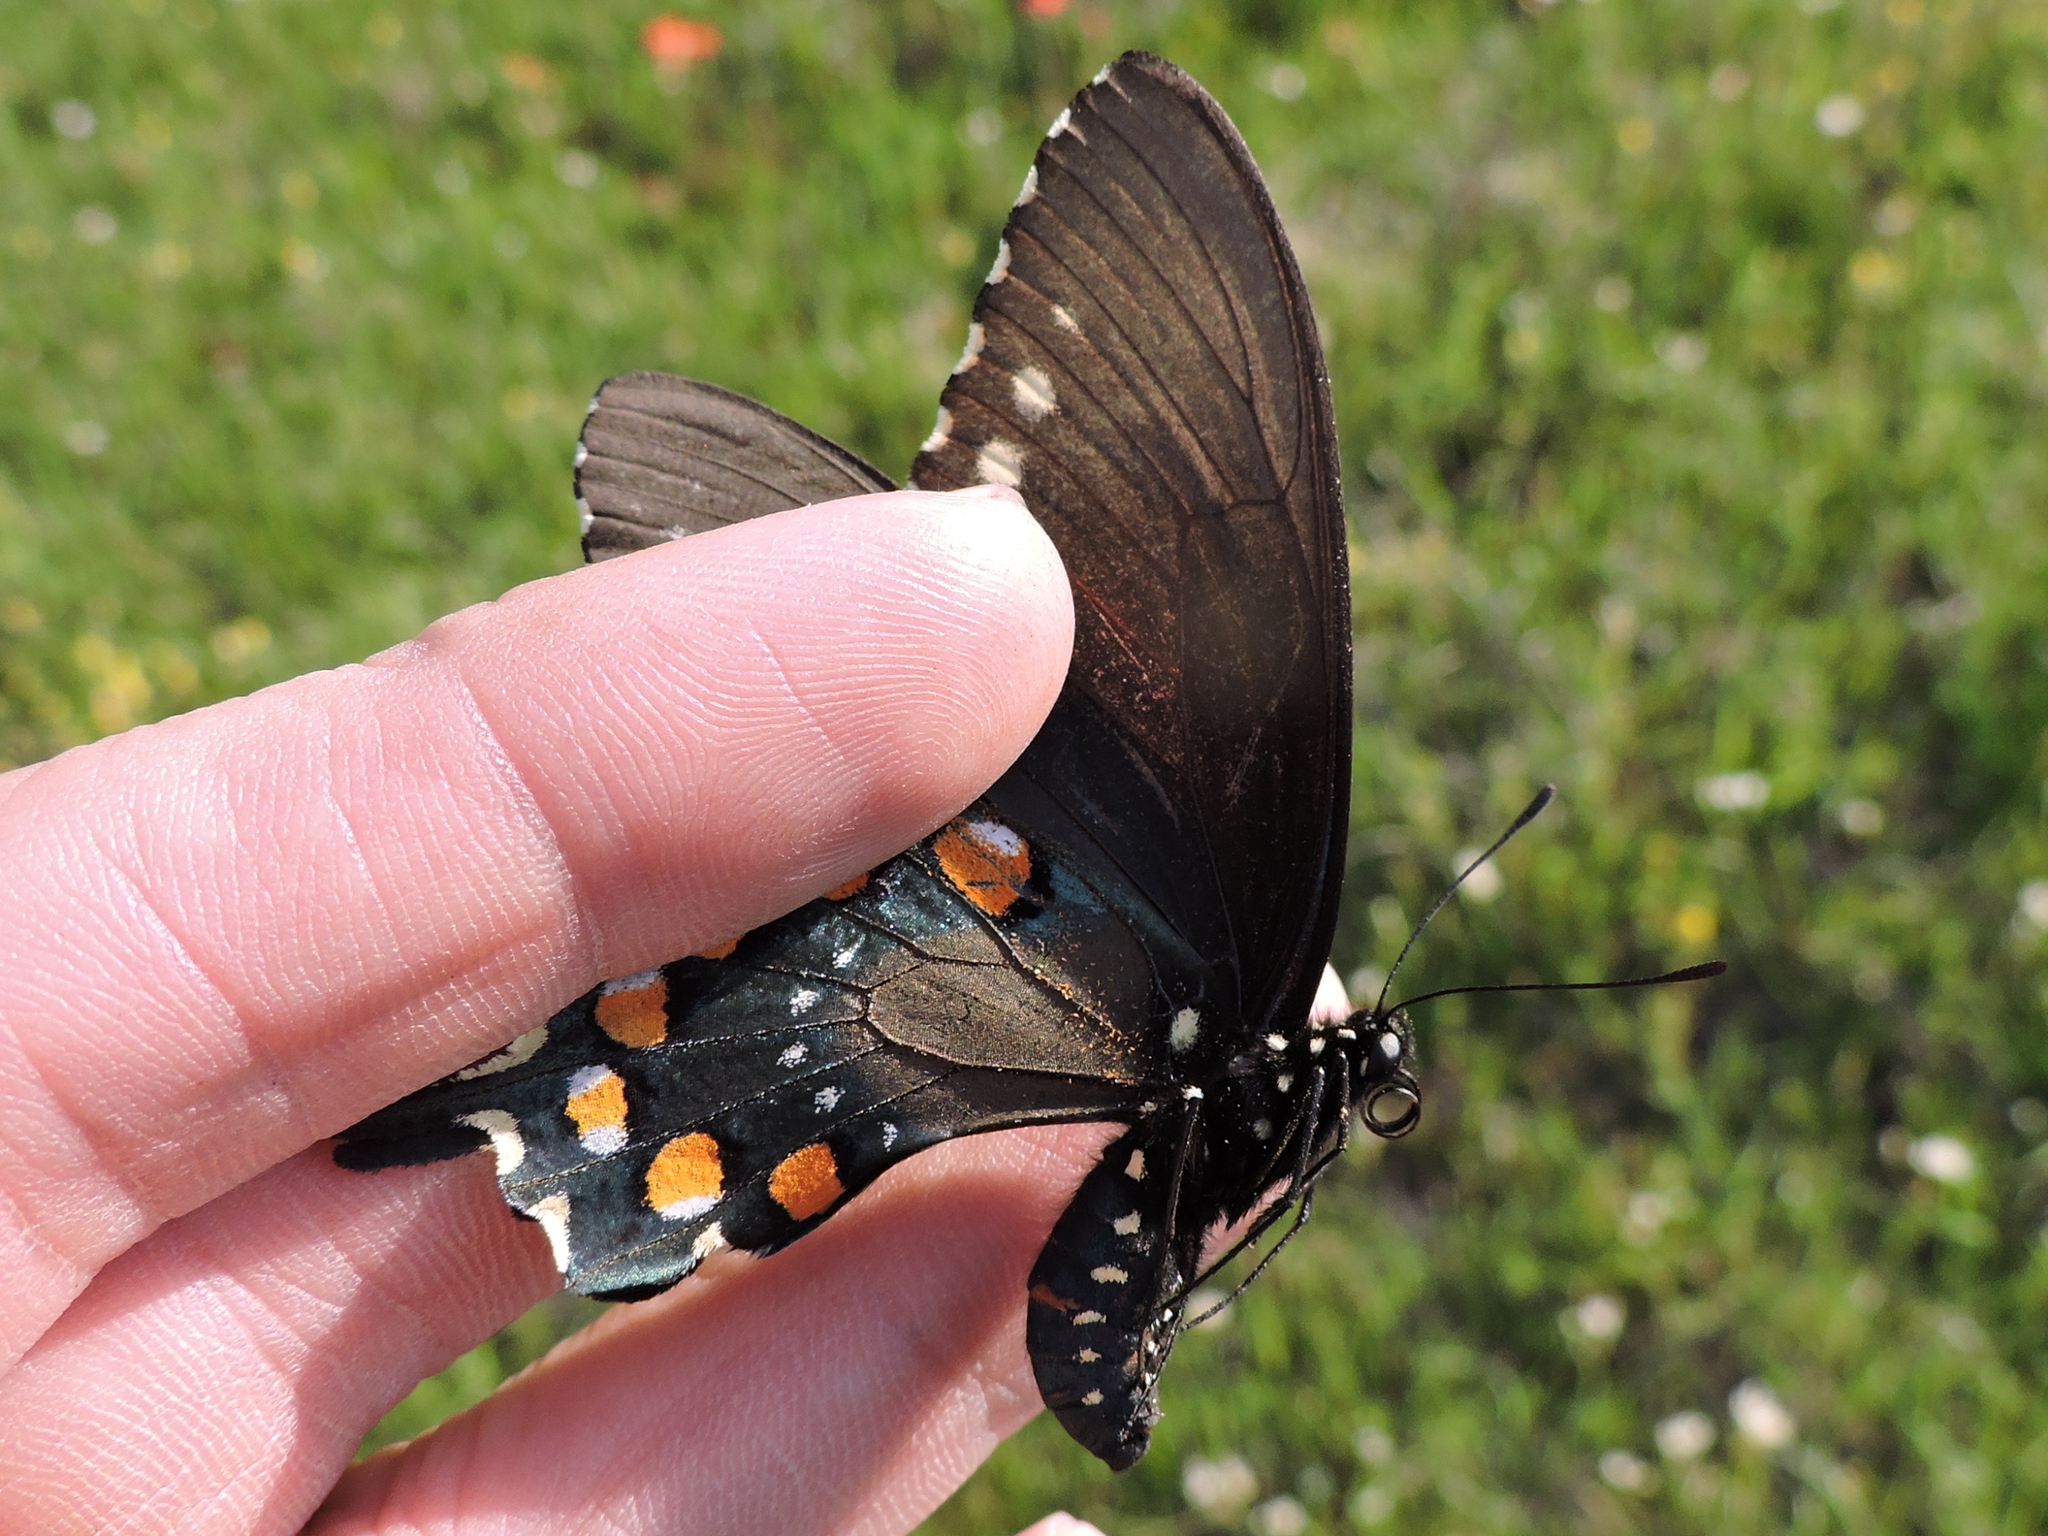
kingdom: Animalia
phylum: Arthropoda
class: Insecta
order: Lepidoptera
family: Papilionidae
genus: Battus
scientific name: Battus philenor
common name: Pipevine swallowtail
